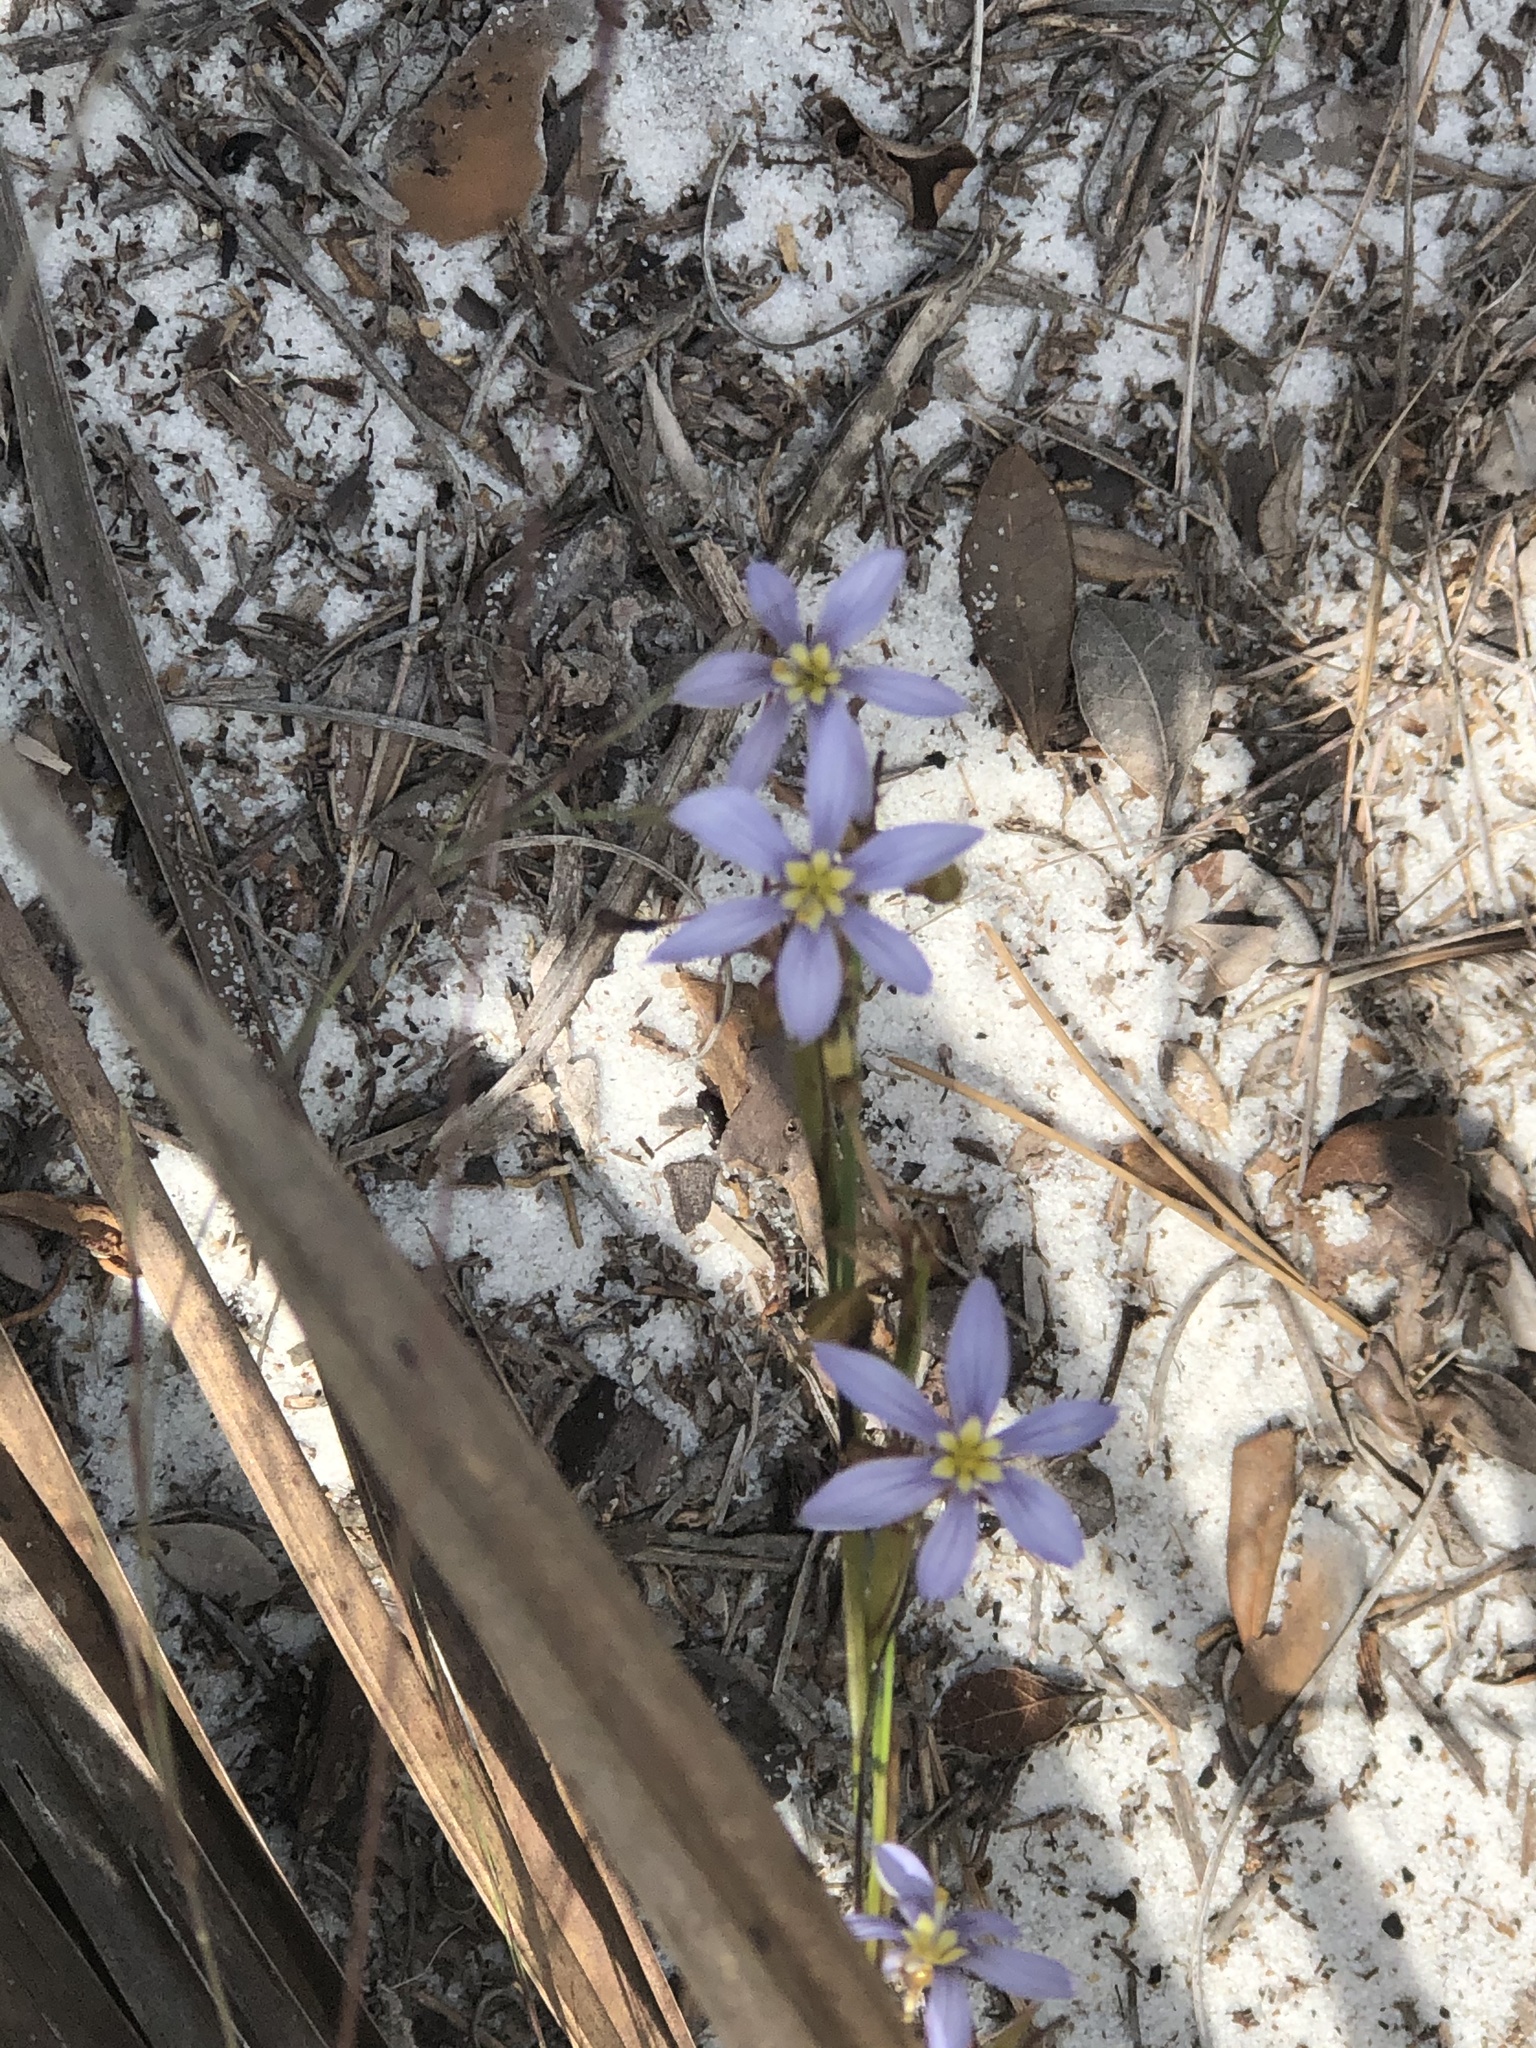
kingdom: Plantae
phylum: Tracheophyta
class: Liliopsida
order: Asparagales
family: Iridaceae
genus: Sisyrinchium
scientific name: Sisyrinchium xerophyllum
